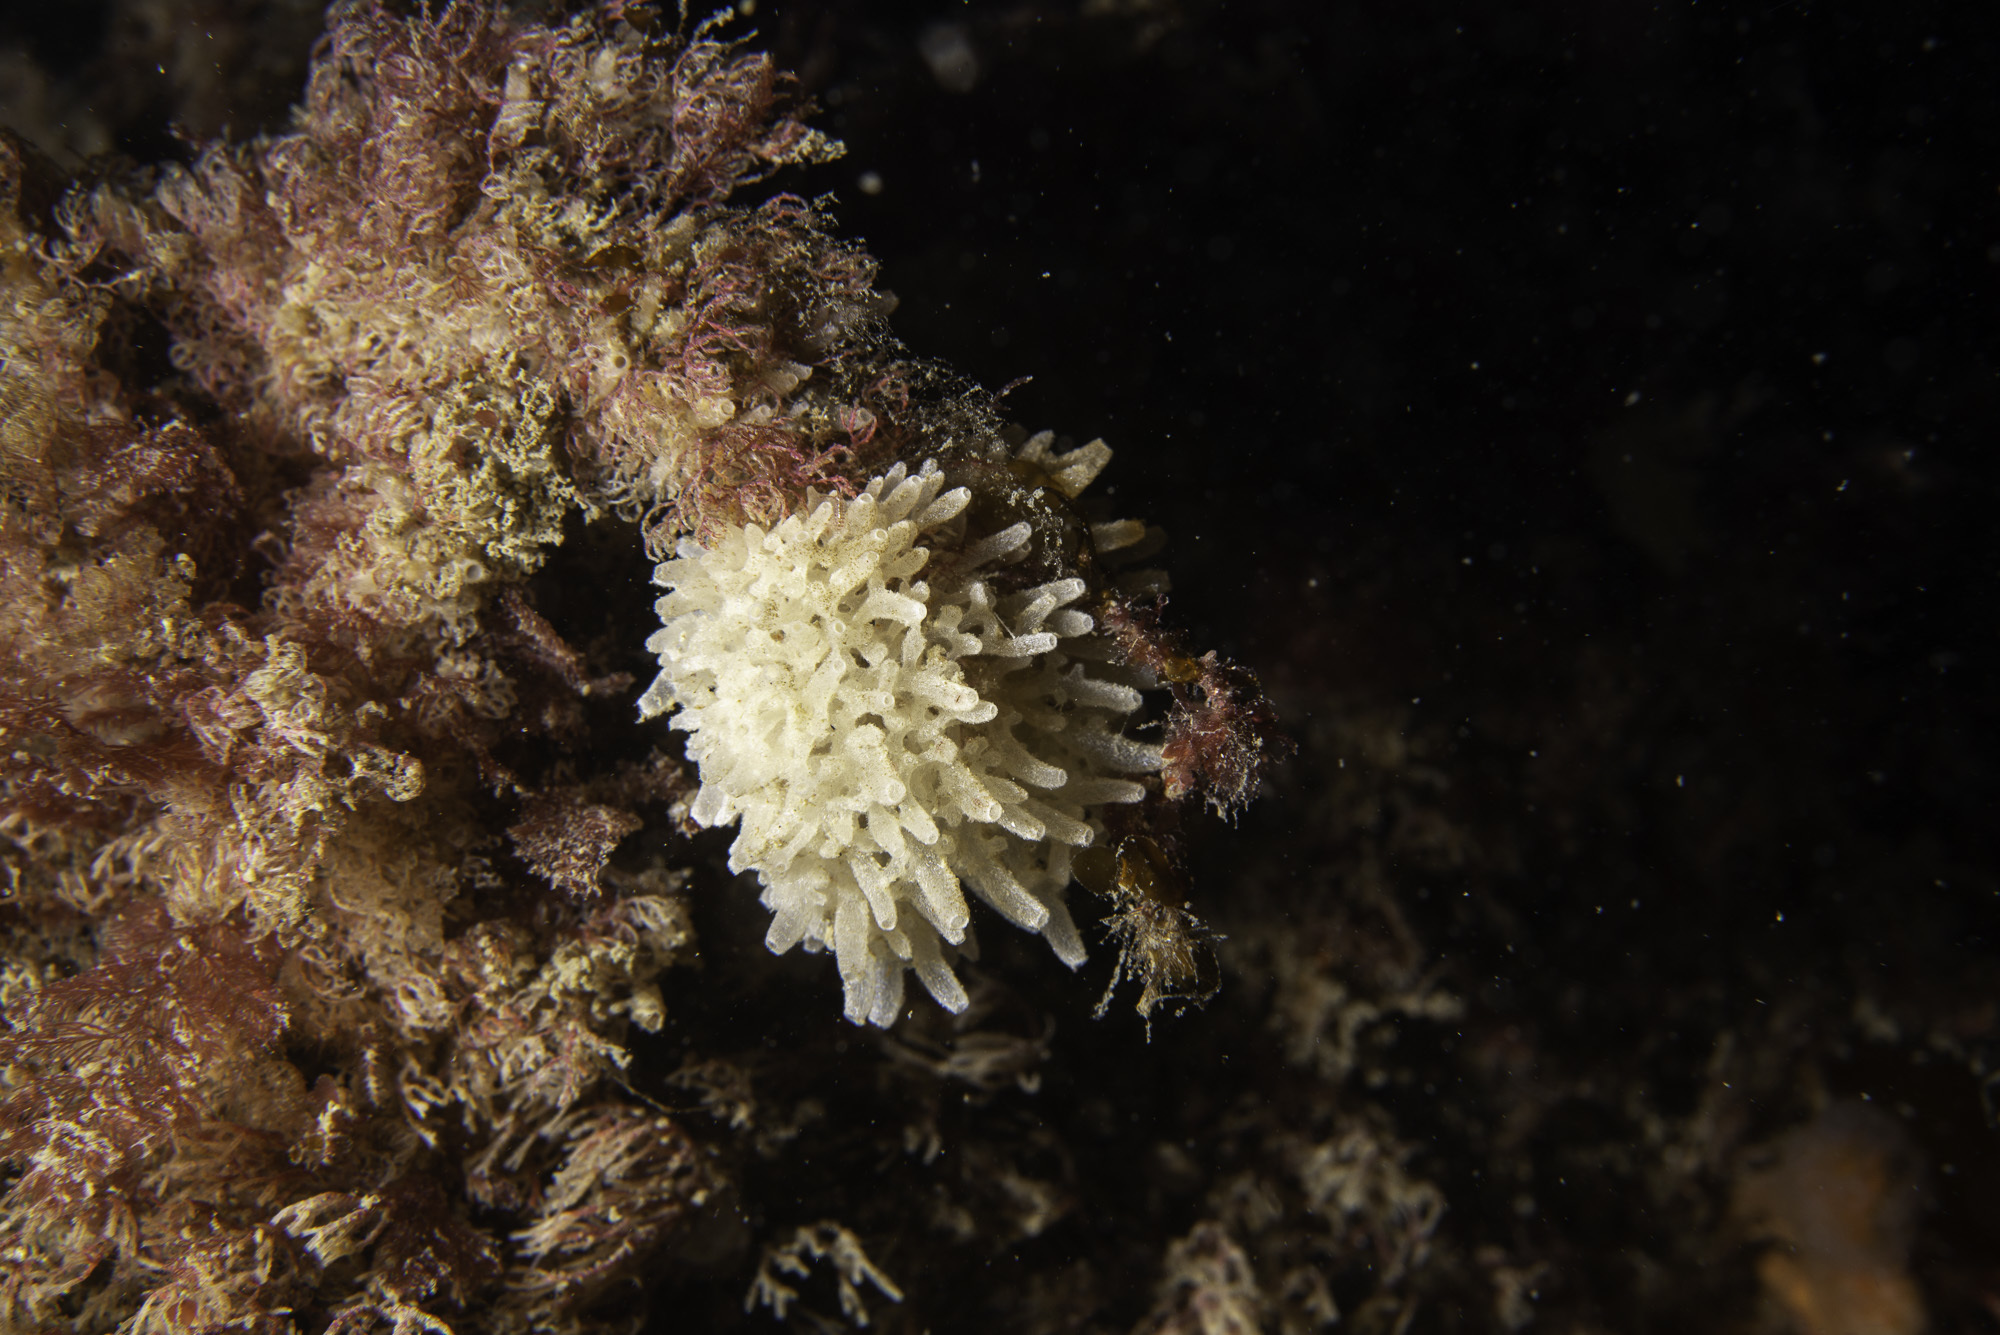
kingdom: Animalia
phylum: Porifera
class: Calcarea
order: Leucosolenida
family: Leucosoleniidae
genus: Leucosolenia
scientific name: Leucosolenia botryoides
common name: Orange pipe sponge
